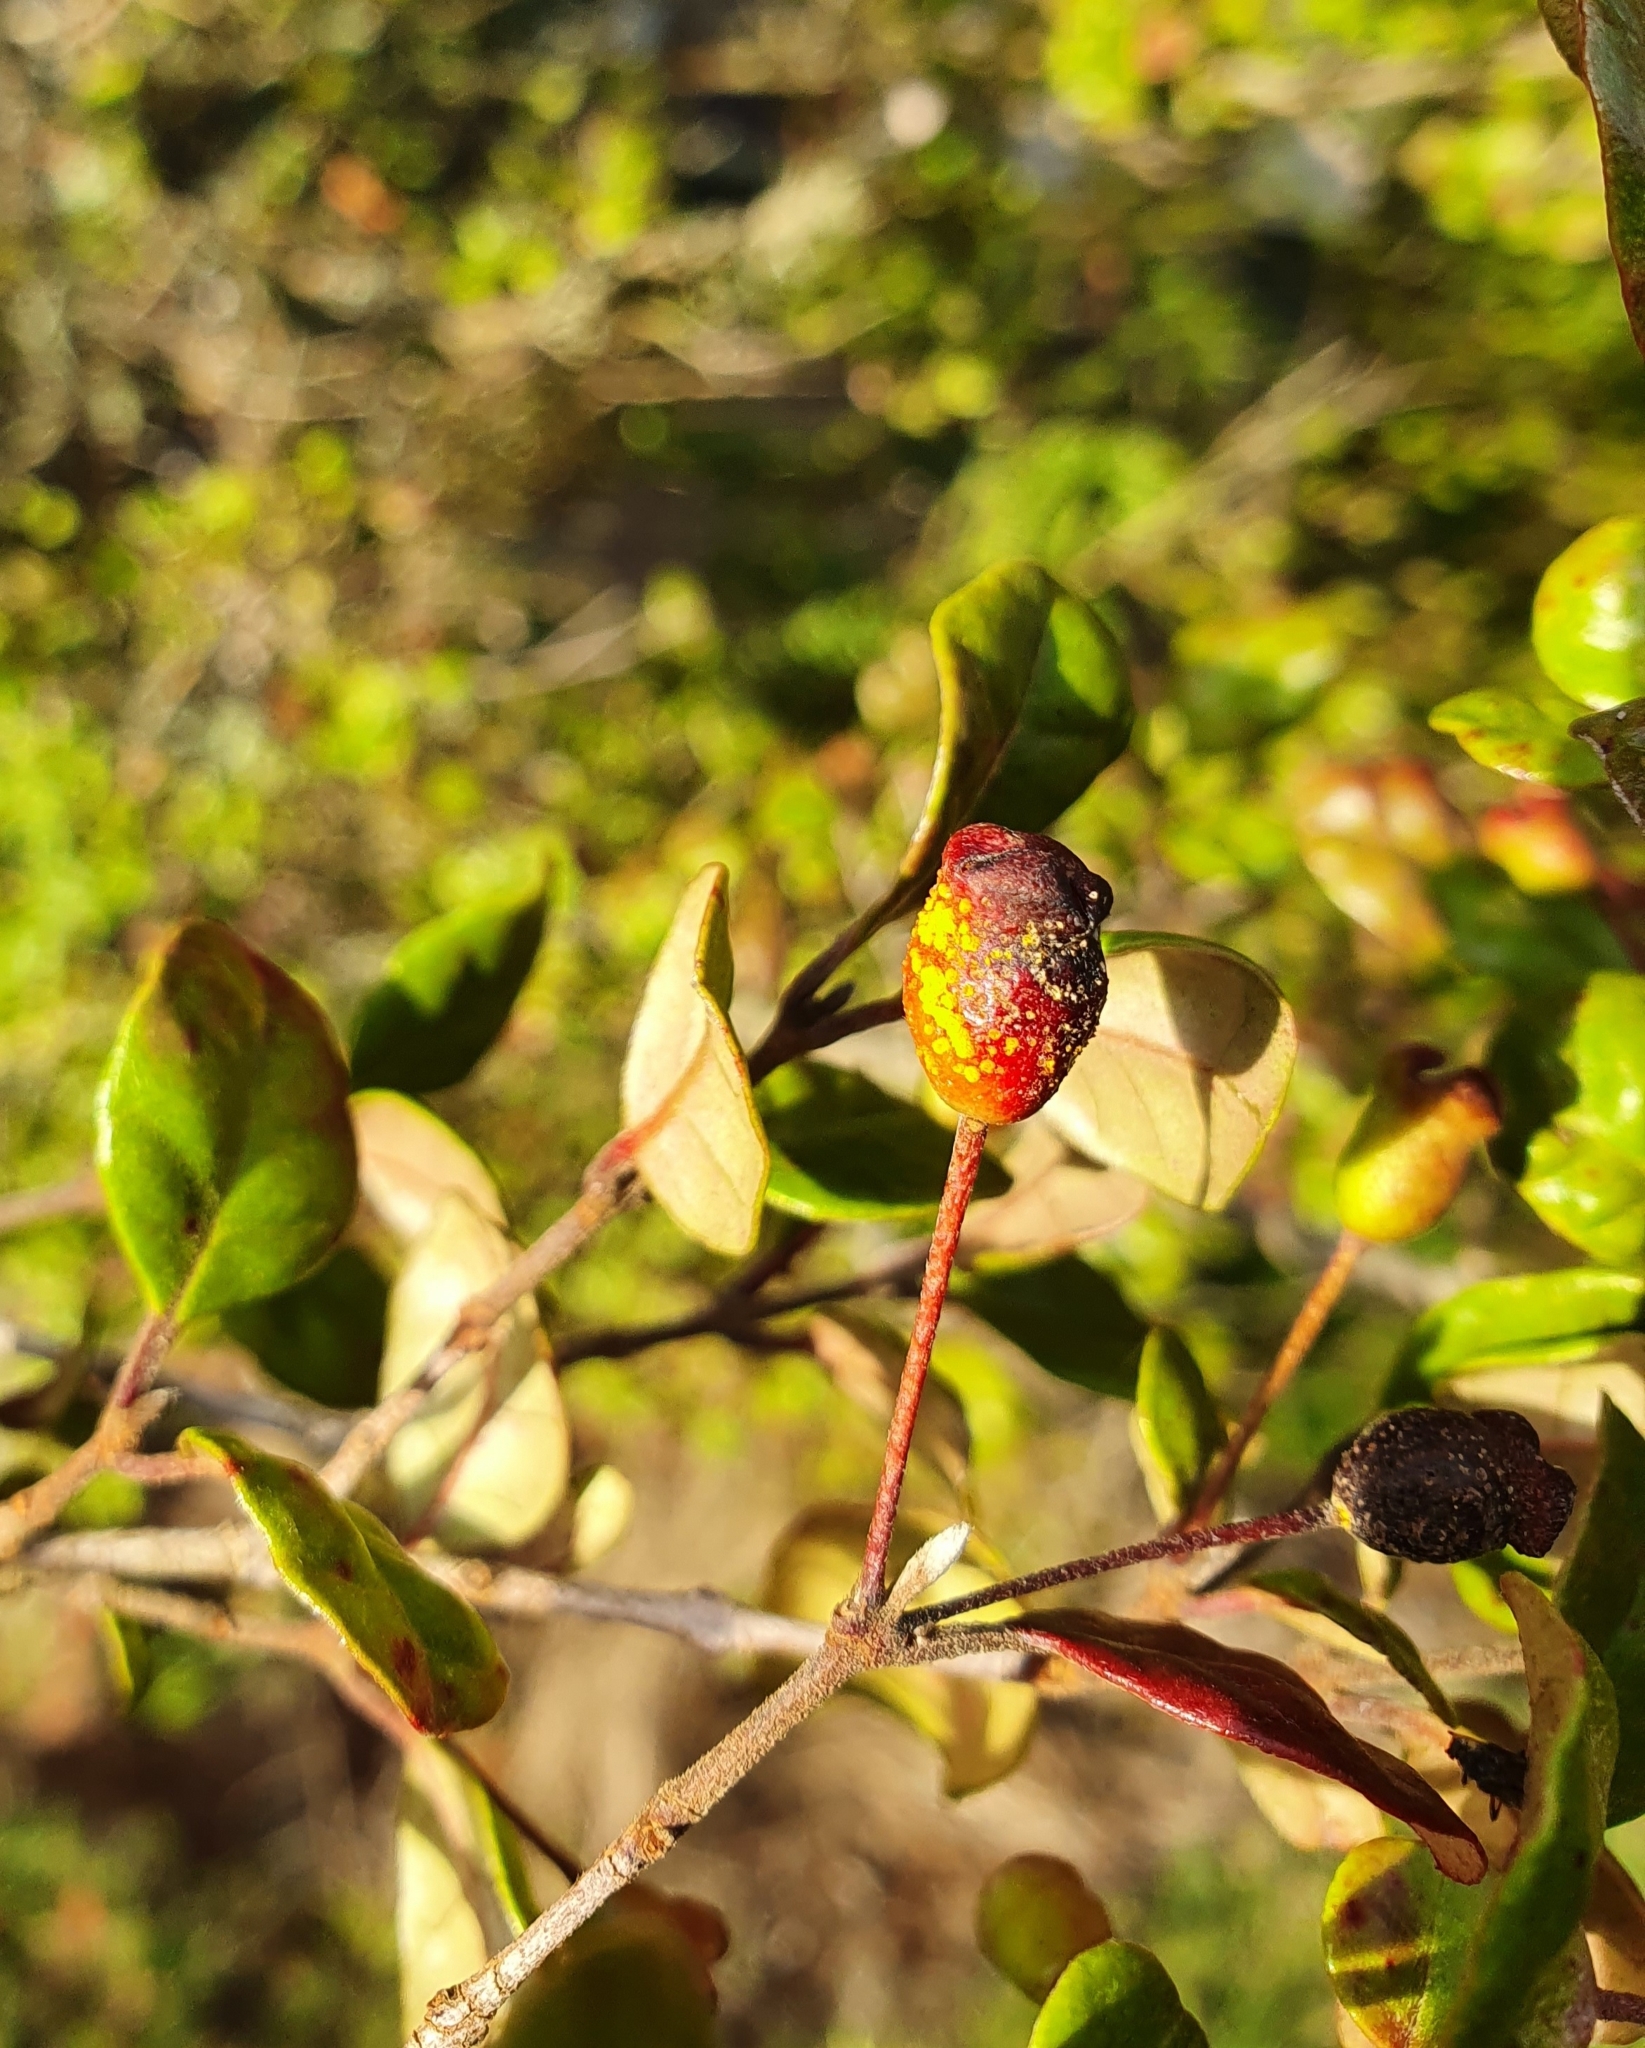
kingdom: Fungi
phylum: Basidiomycota
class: Pucciniomycetes
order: Pucciniales
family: Sphaerophragmiaceae
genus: Austropuccinia
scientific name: Austropuccinia psidii
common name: Myrtle rust
